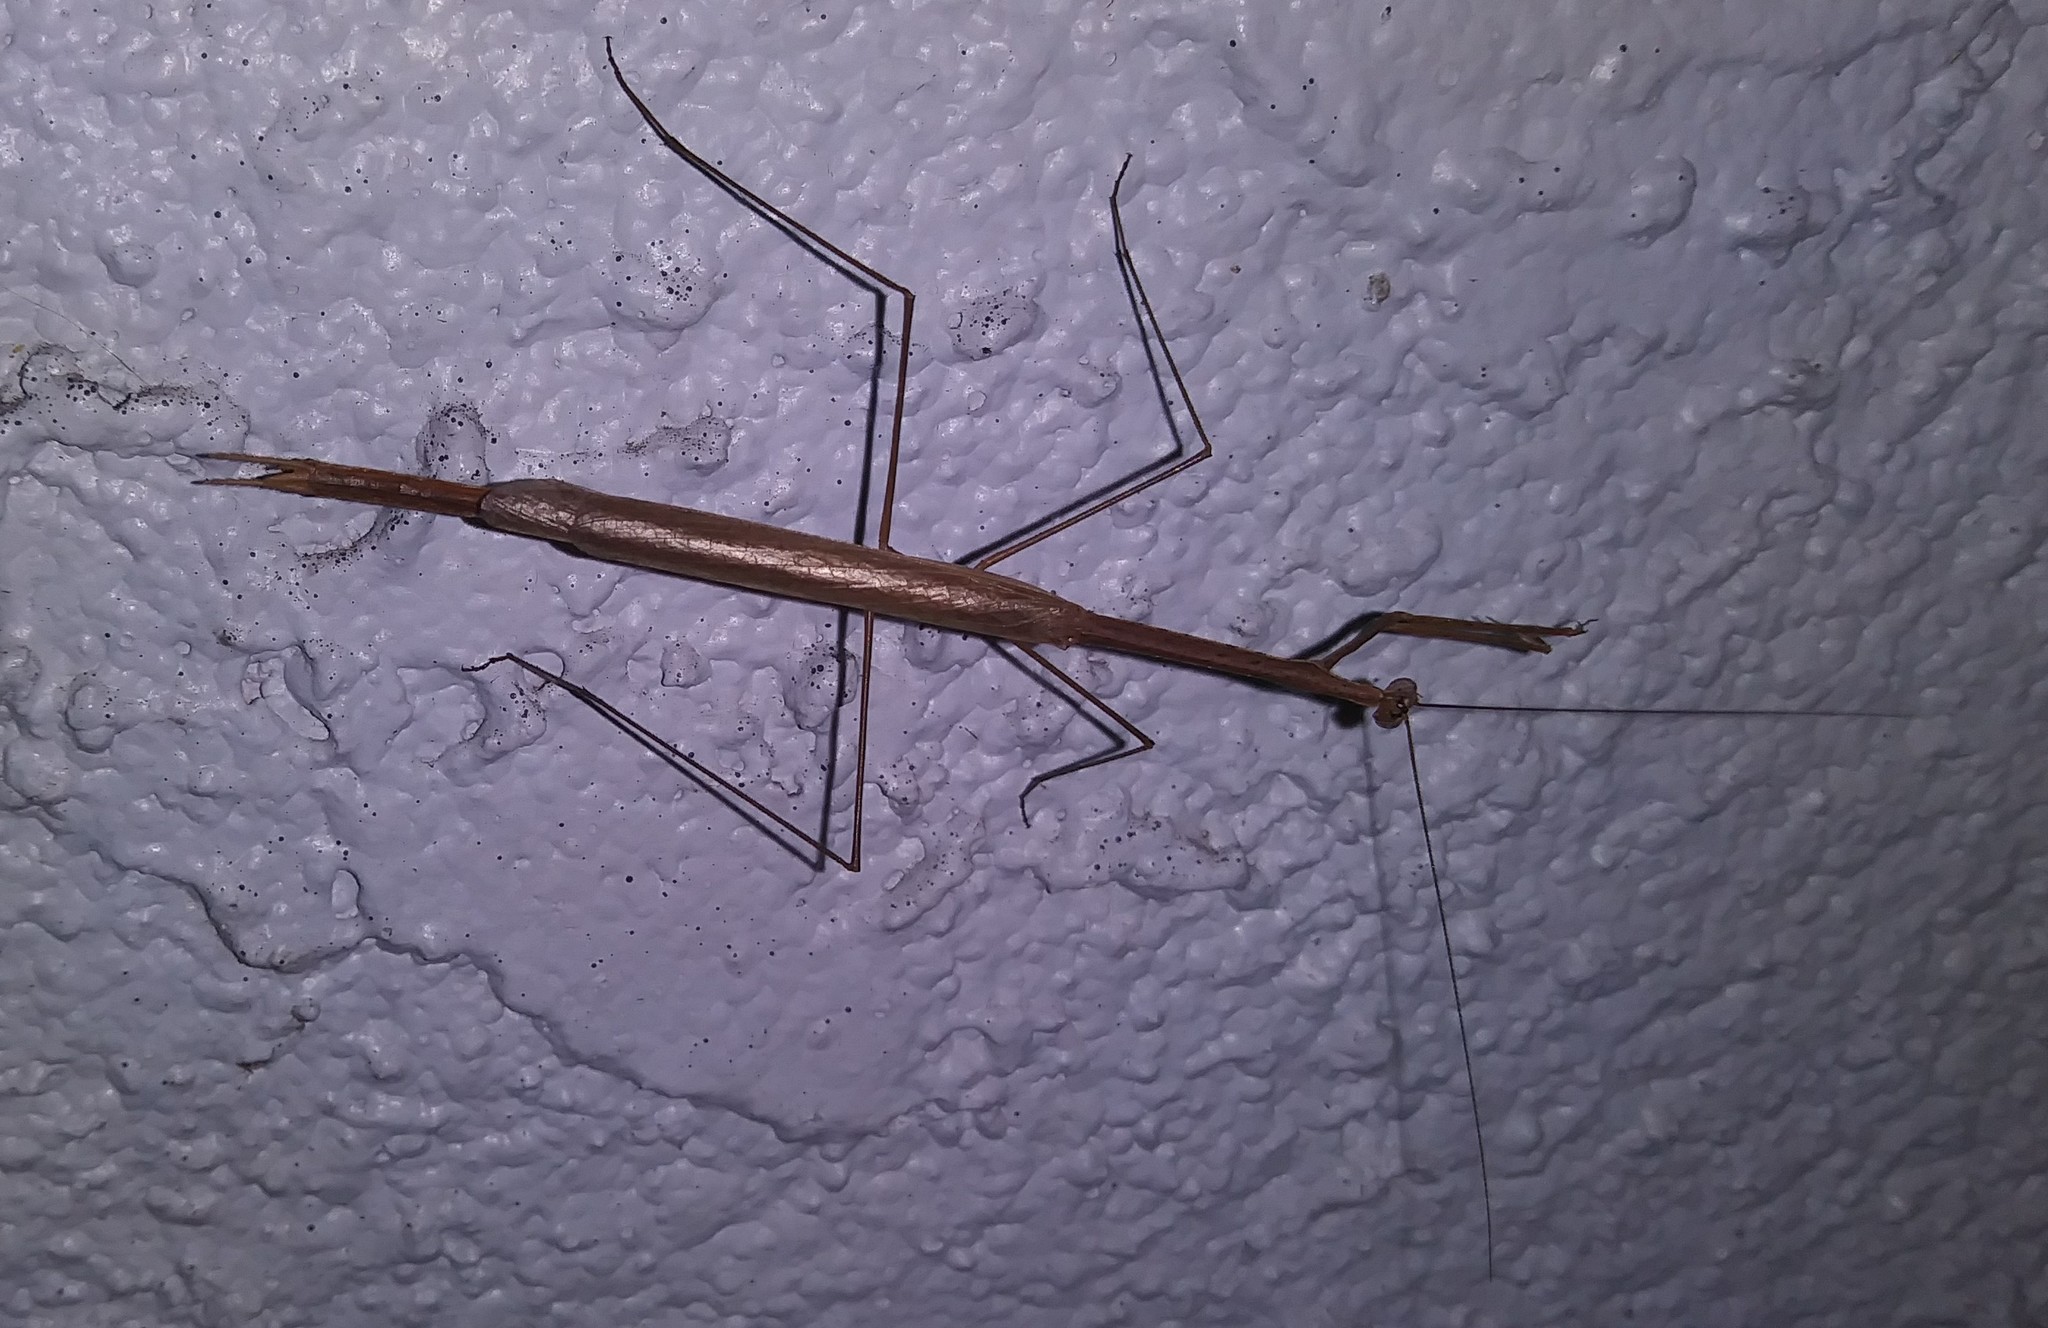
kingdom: Animalia
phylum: Arthropoda
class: Insecta
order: Mantodea
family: Thespidae
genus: Thesprotia
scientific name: Thesprotia graminis
